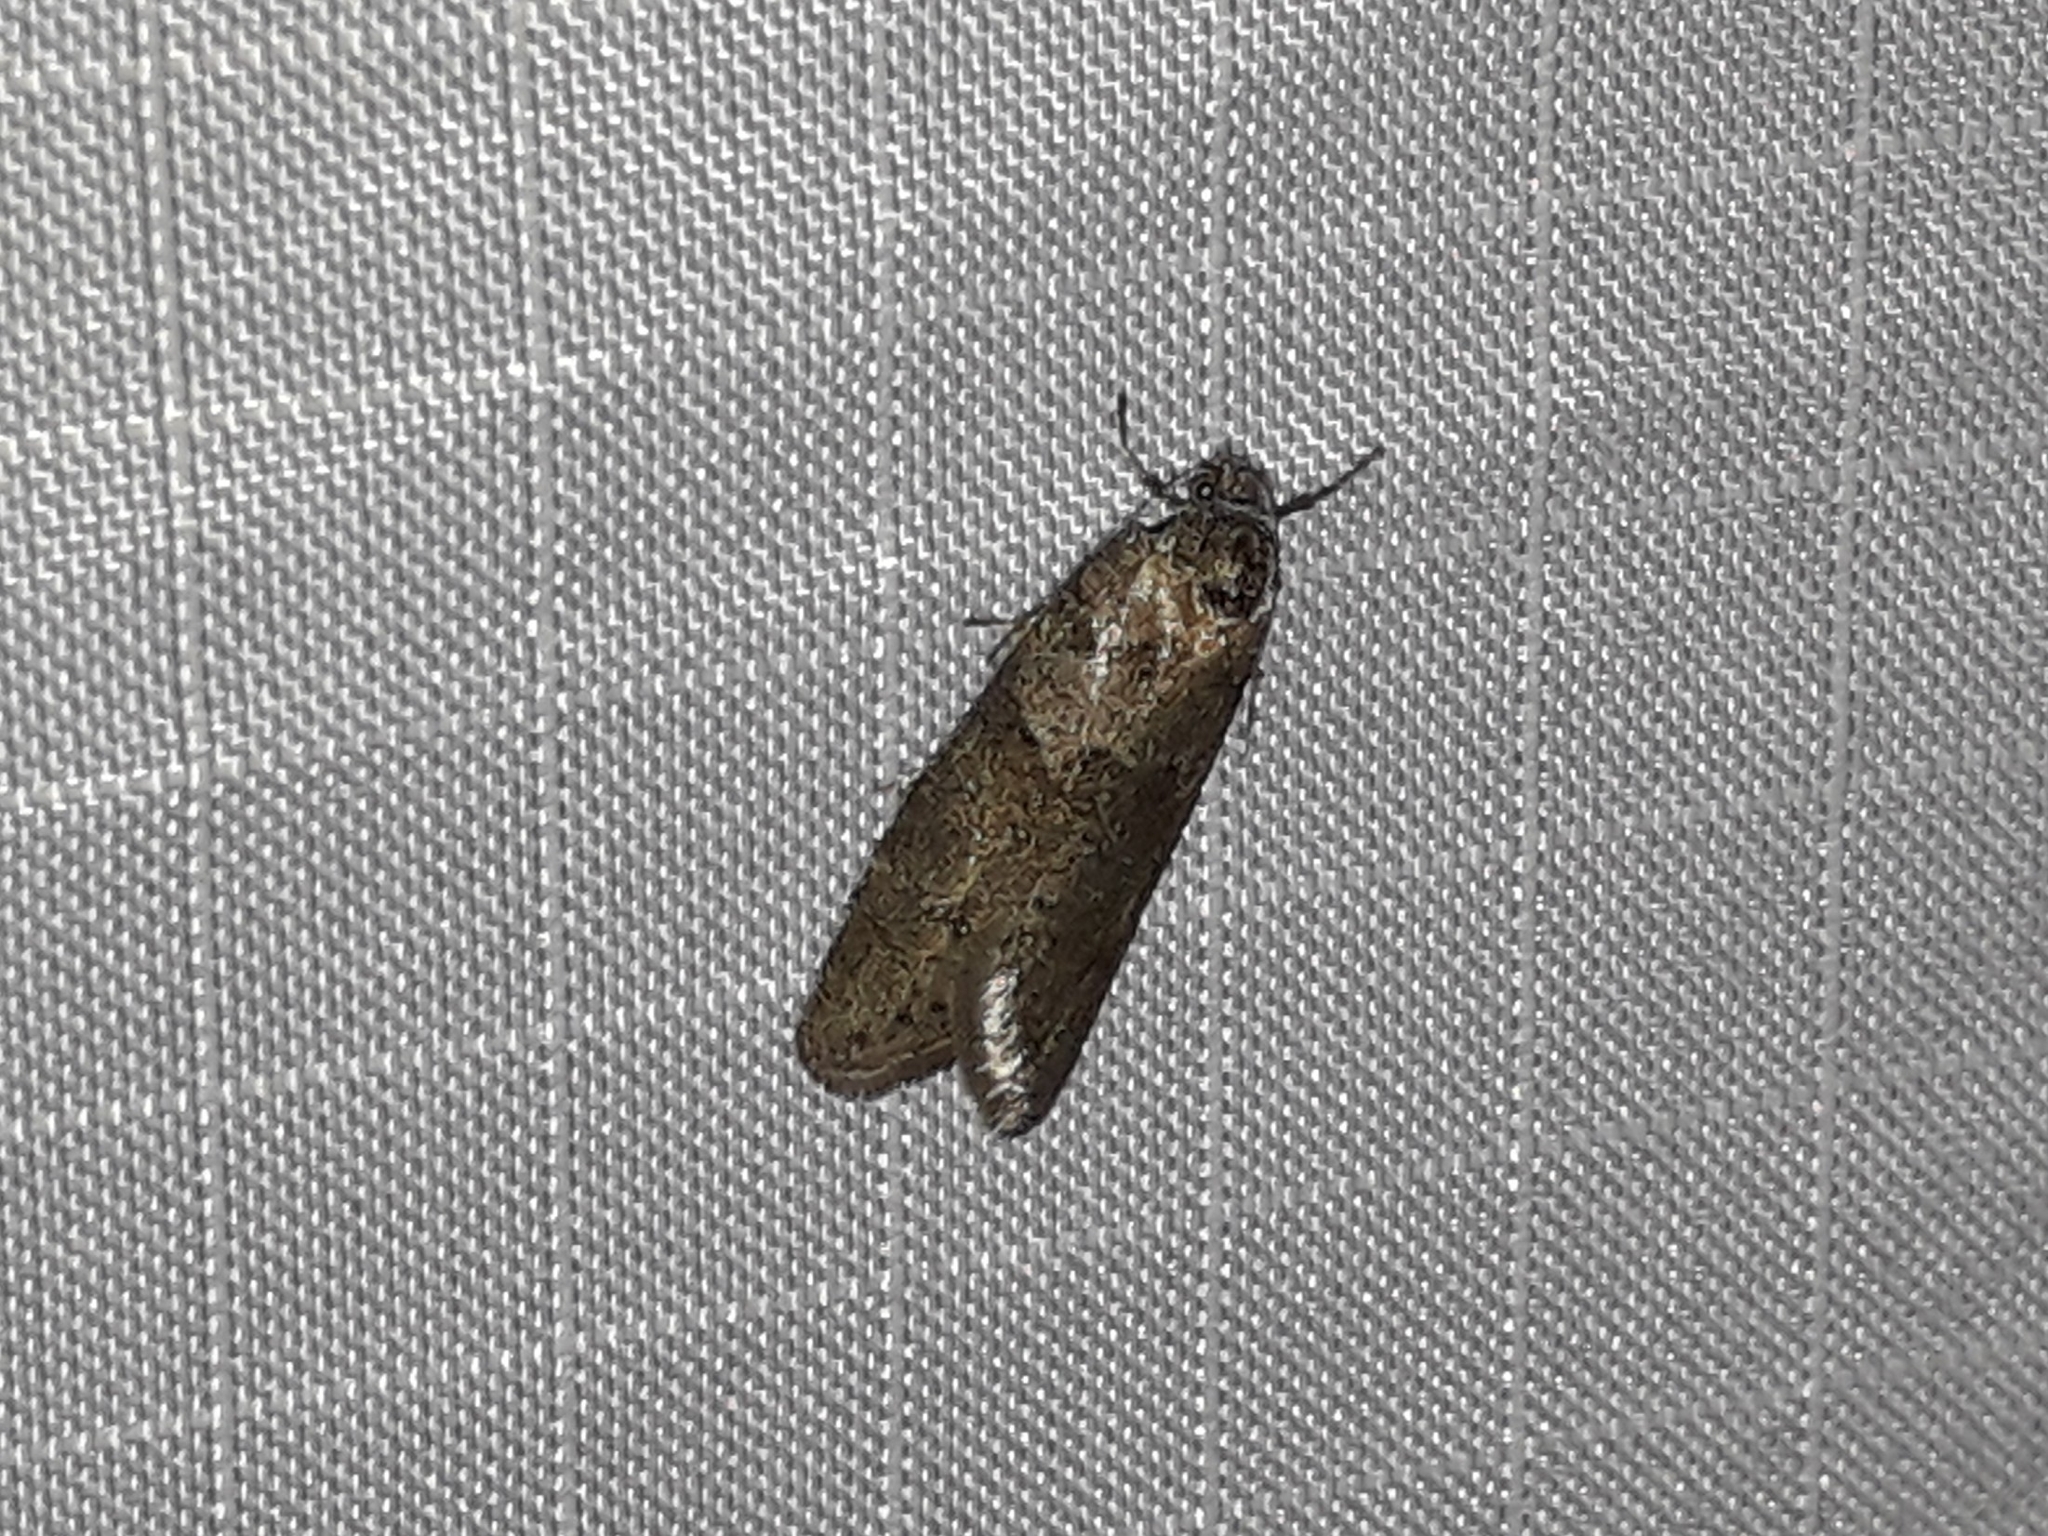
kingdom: Animalia
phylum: Arthropoda
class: Insecta
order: Lepidoptera
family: Tortricidae
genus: Tortricodes
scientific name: Tortricodes alternella
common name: Winter shade
